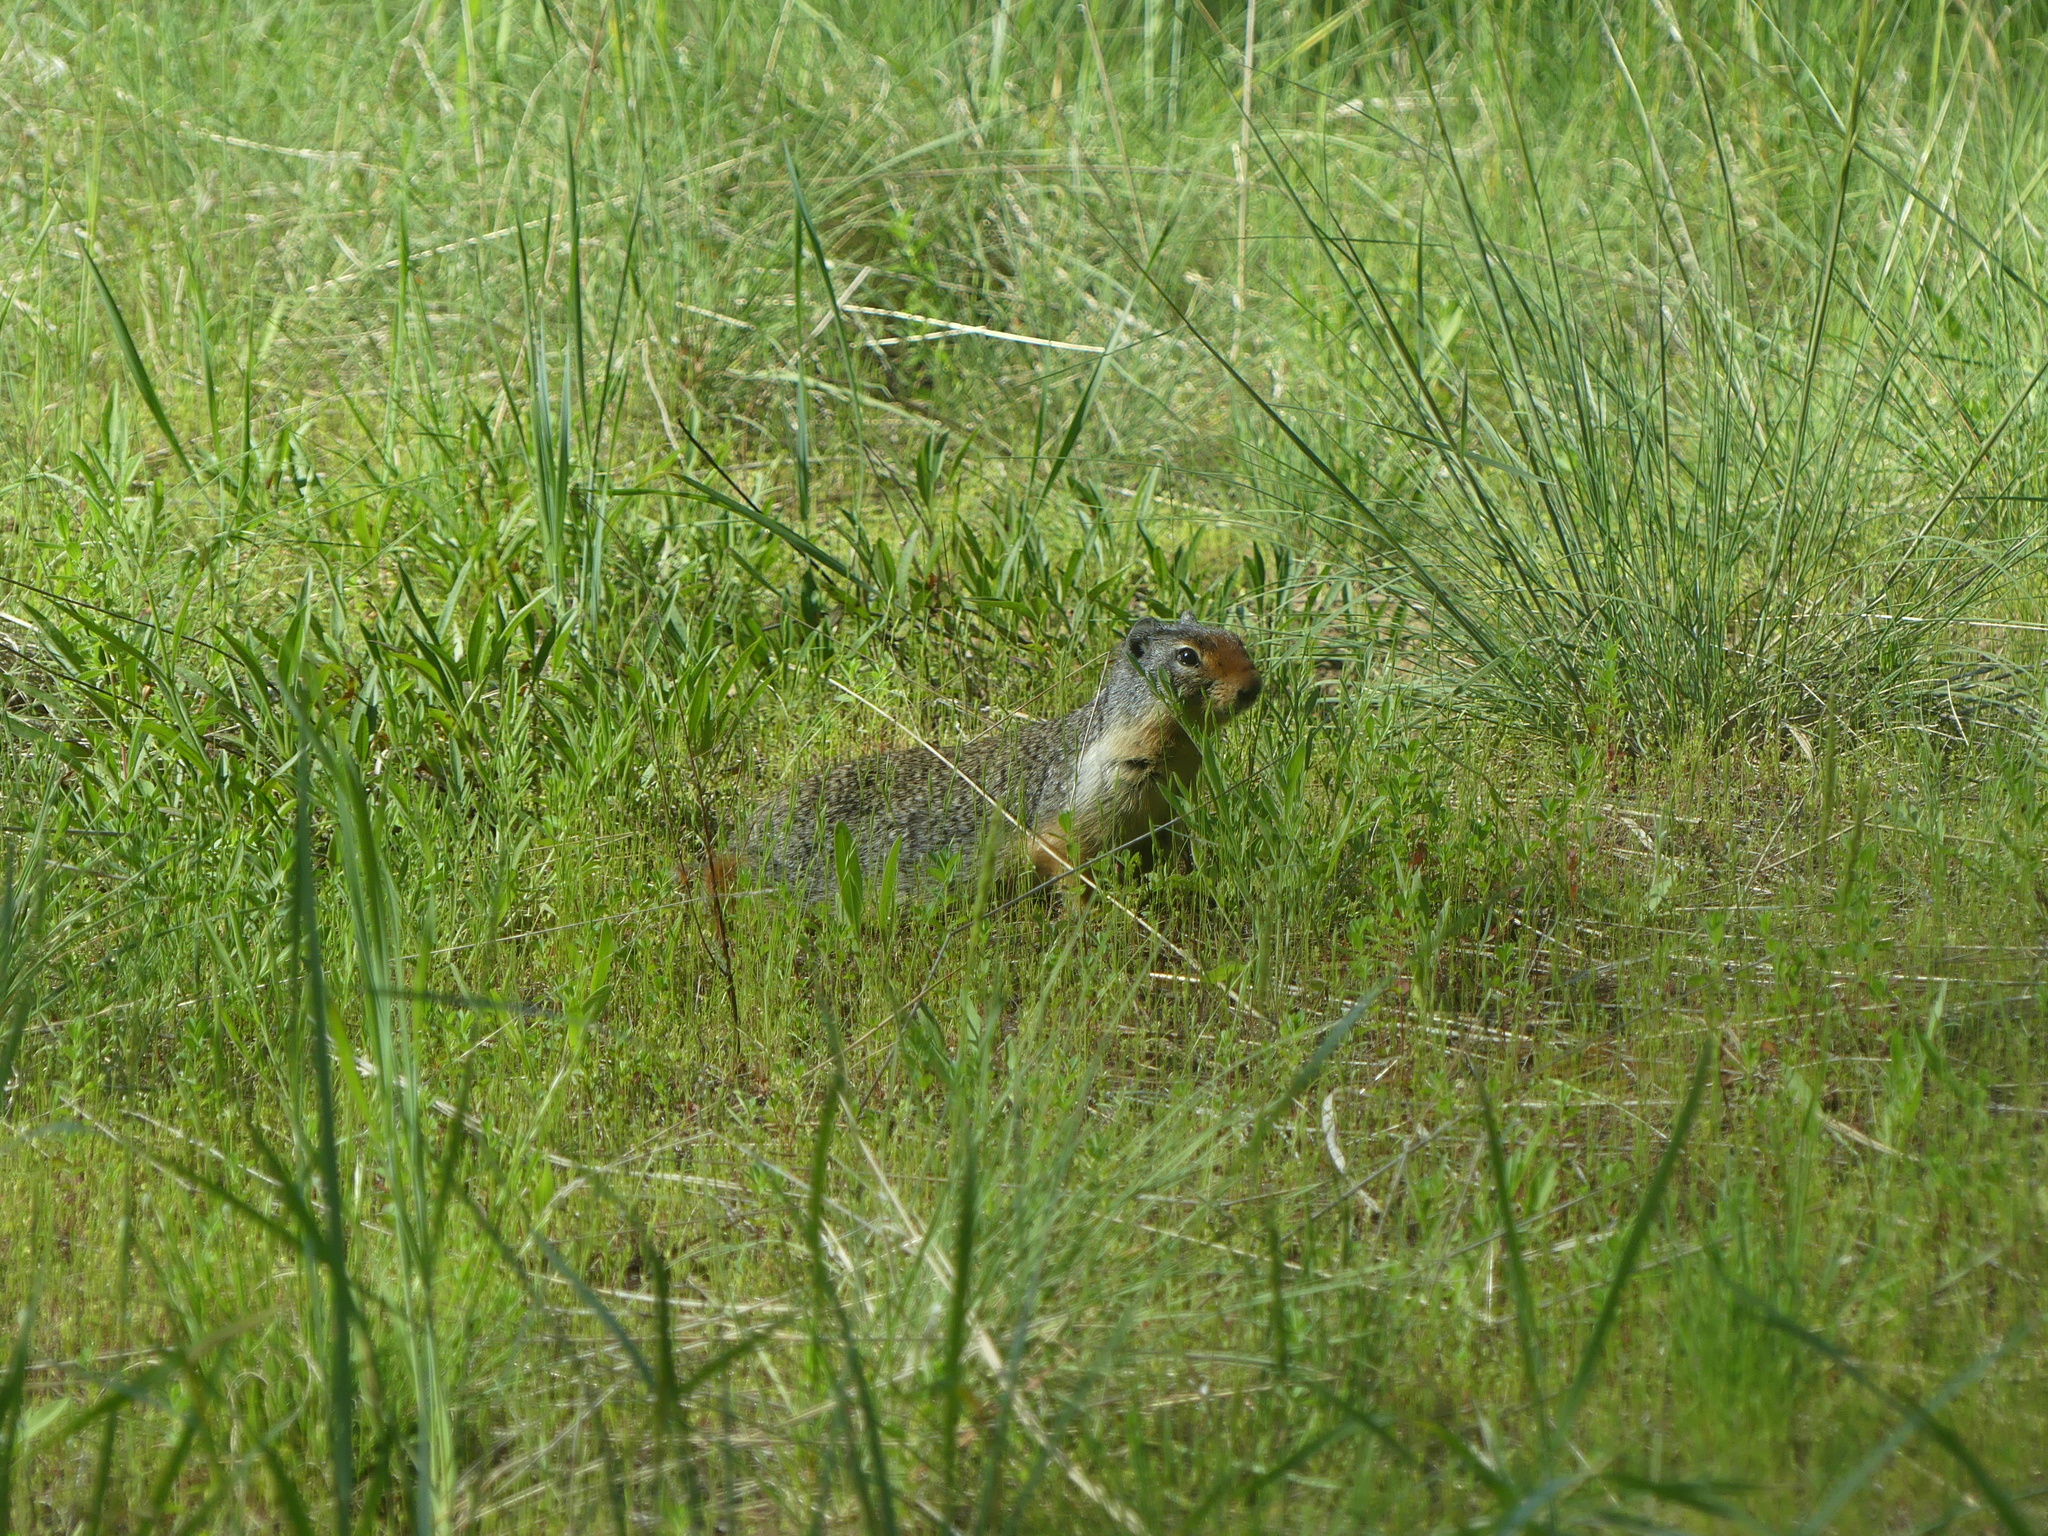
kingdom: Animalia
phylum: Chordata
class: Mammalia
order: Rodentia
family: Sciuridae
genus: Urocitellus
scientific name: Urocitellus columbianus
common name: Columbian ground squirrel
